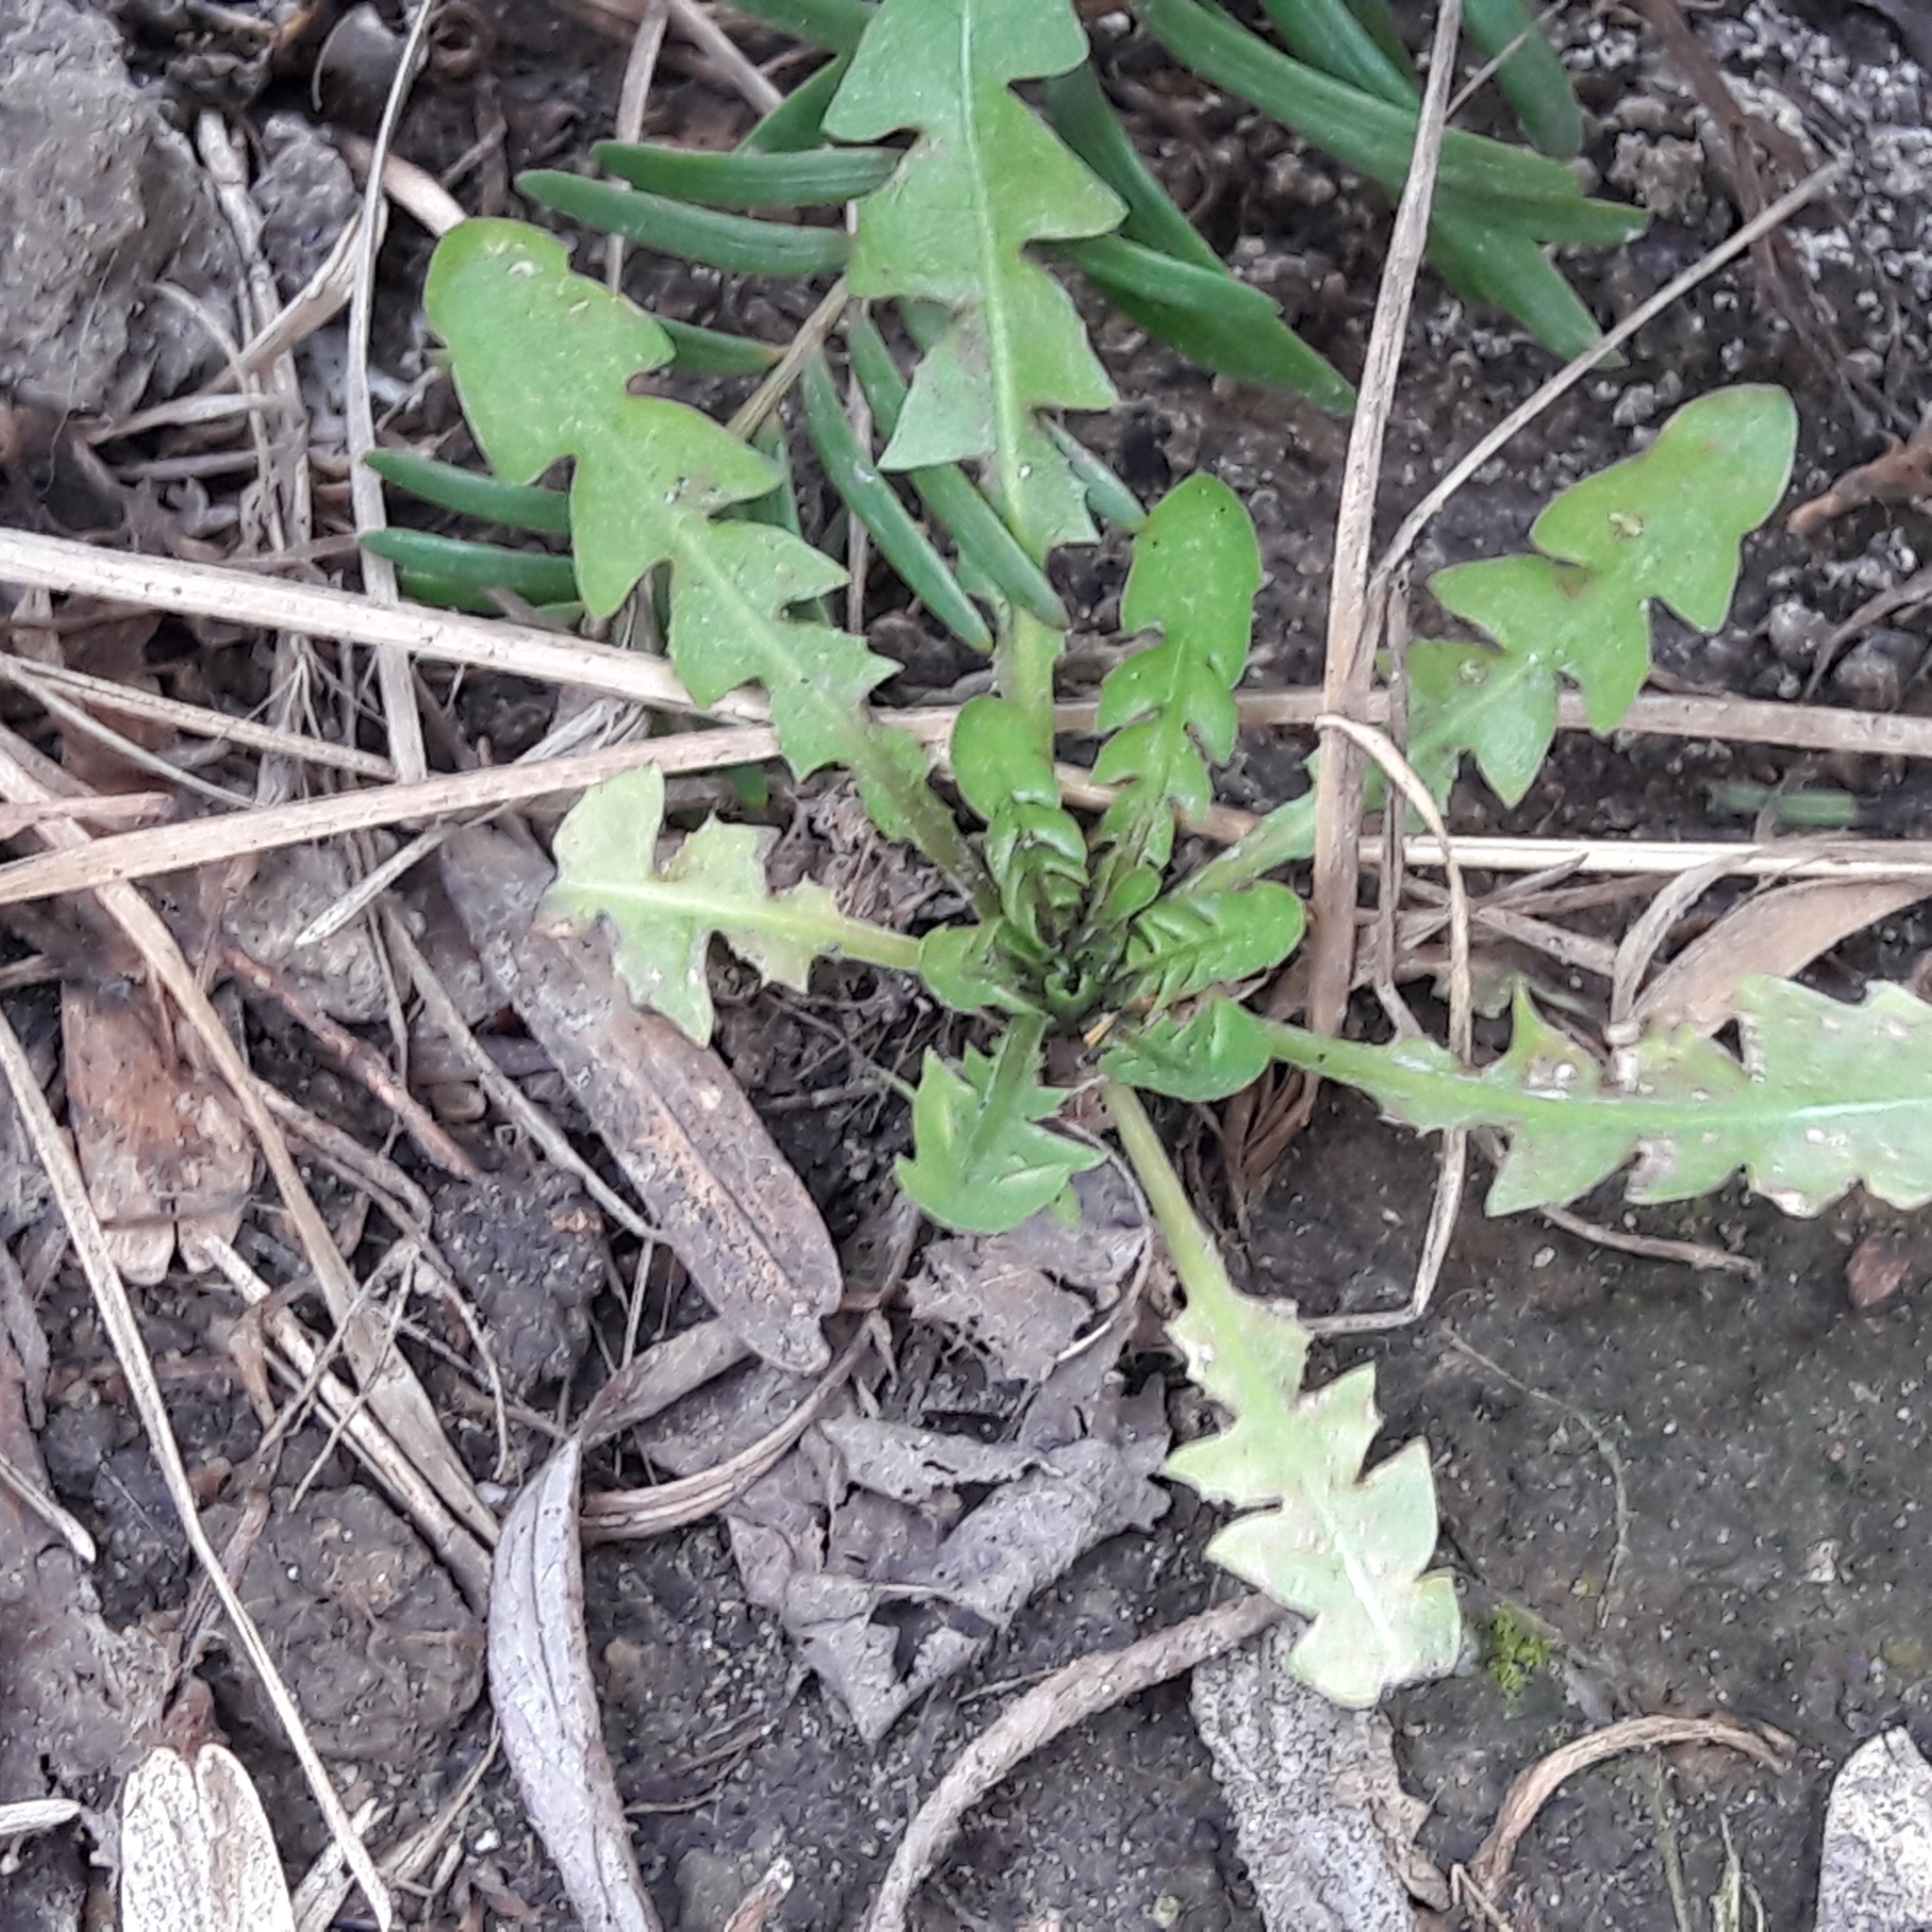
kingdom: Plantae
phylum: Tracheophyta
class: Magnoliopsida
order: Asterales
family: Asteraceae
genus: Taraxacum
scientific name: Taraxacum officinale
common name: Common dandelion
